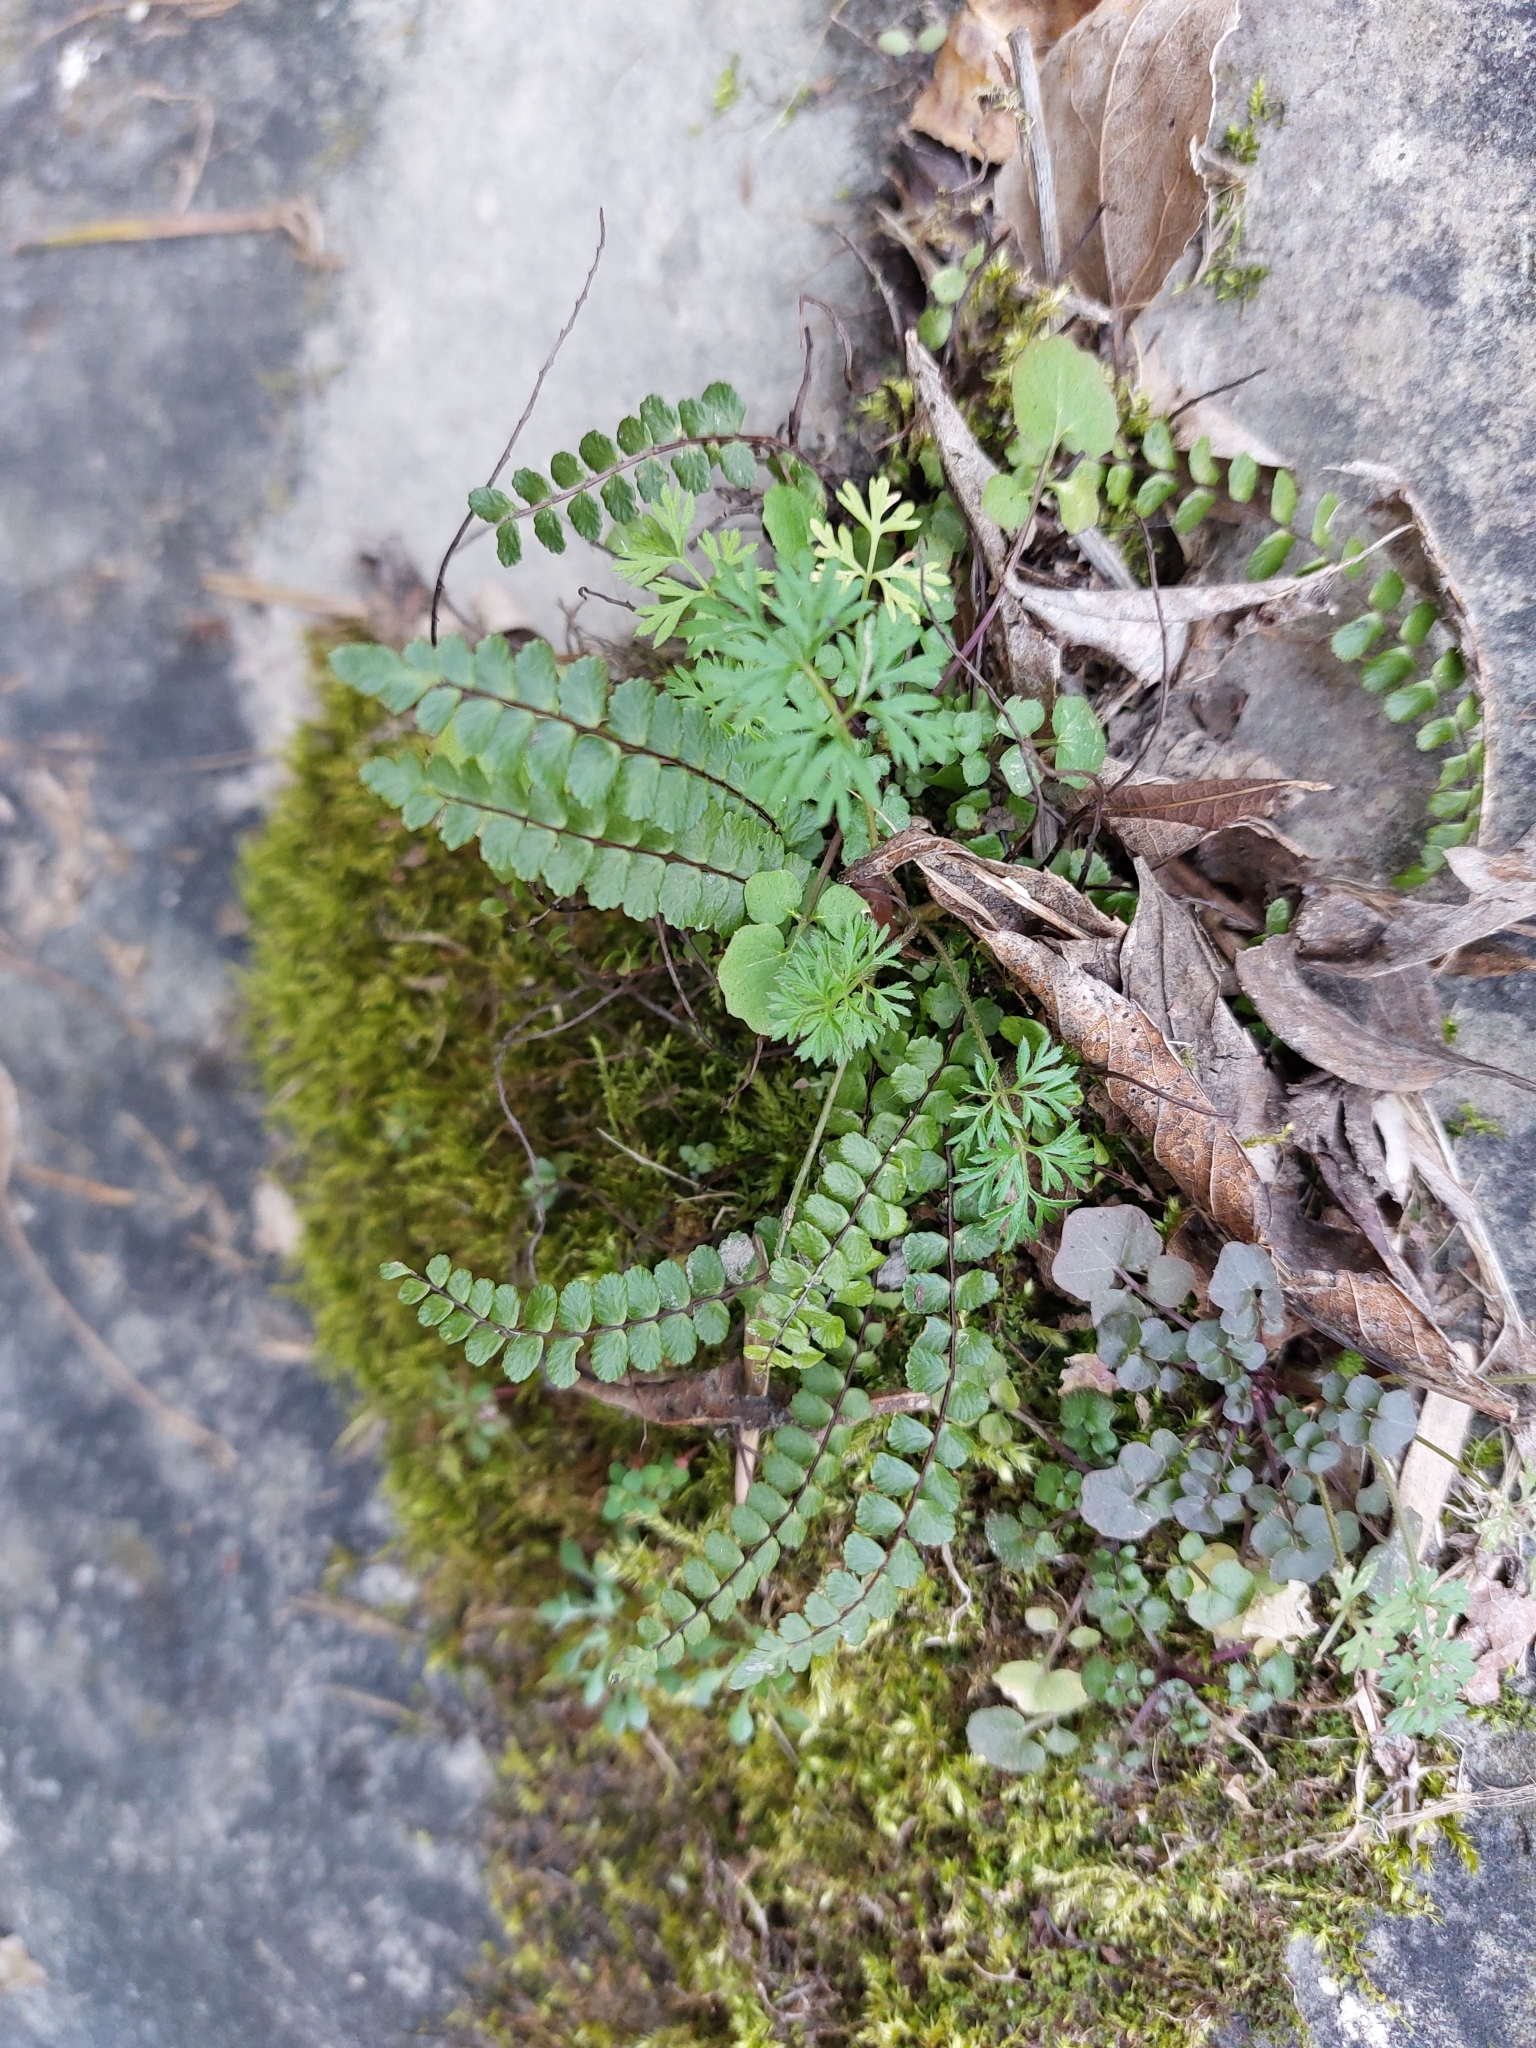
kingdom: Plantae
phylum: Tracheophyta
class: Polypodiopsida
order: Polypodiales
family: Aspleniaceae
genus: Asplenium
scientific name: Asplenium trichomanes
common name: Maidenhair spleenwort
